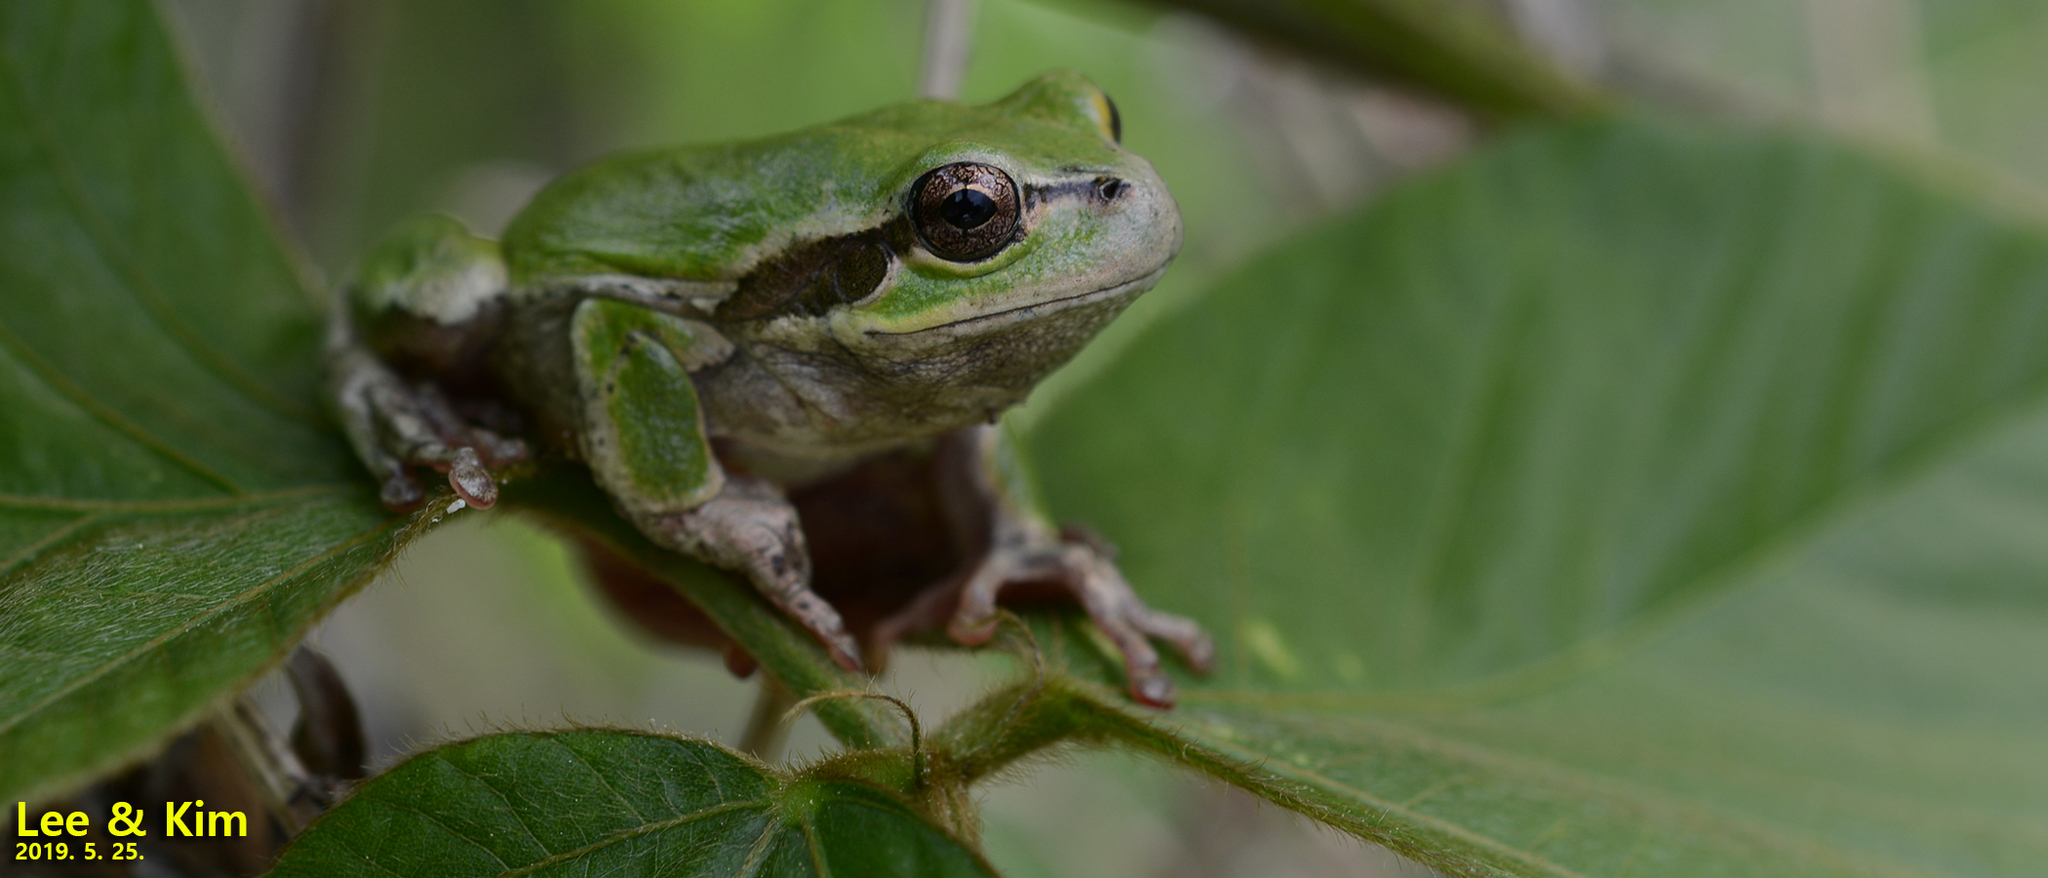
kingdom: Animalia
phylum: Chordata
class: Amphibia
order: Anura
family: Hylidae
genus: Dryophytes
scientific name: Dryophytes japonicus
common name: Japanese treefrog
